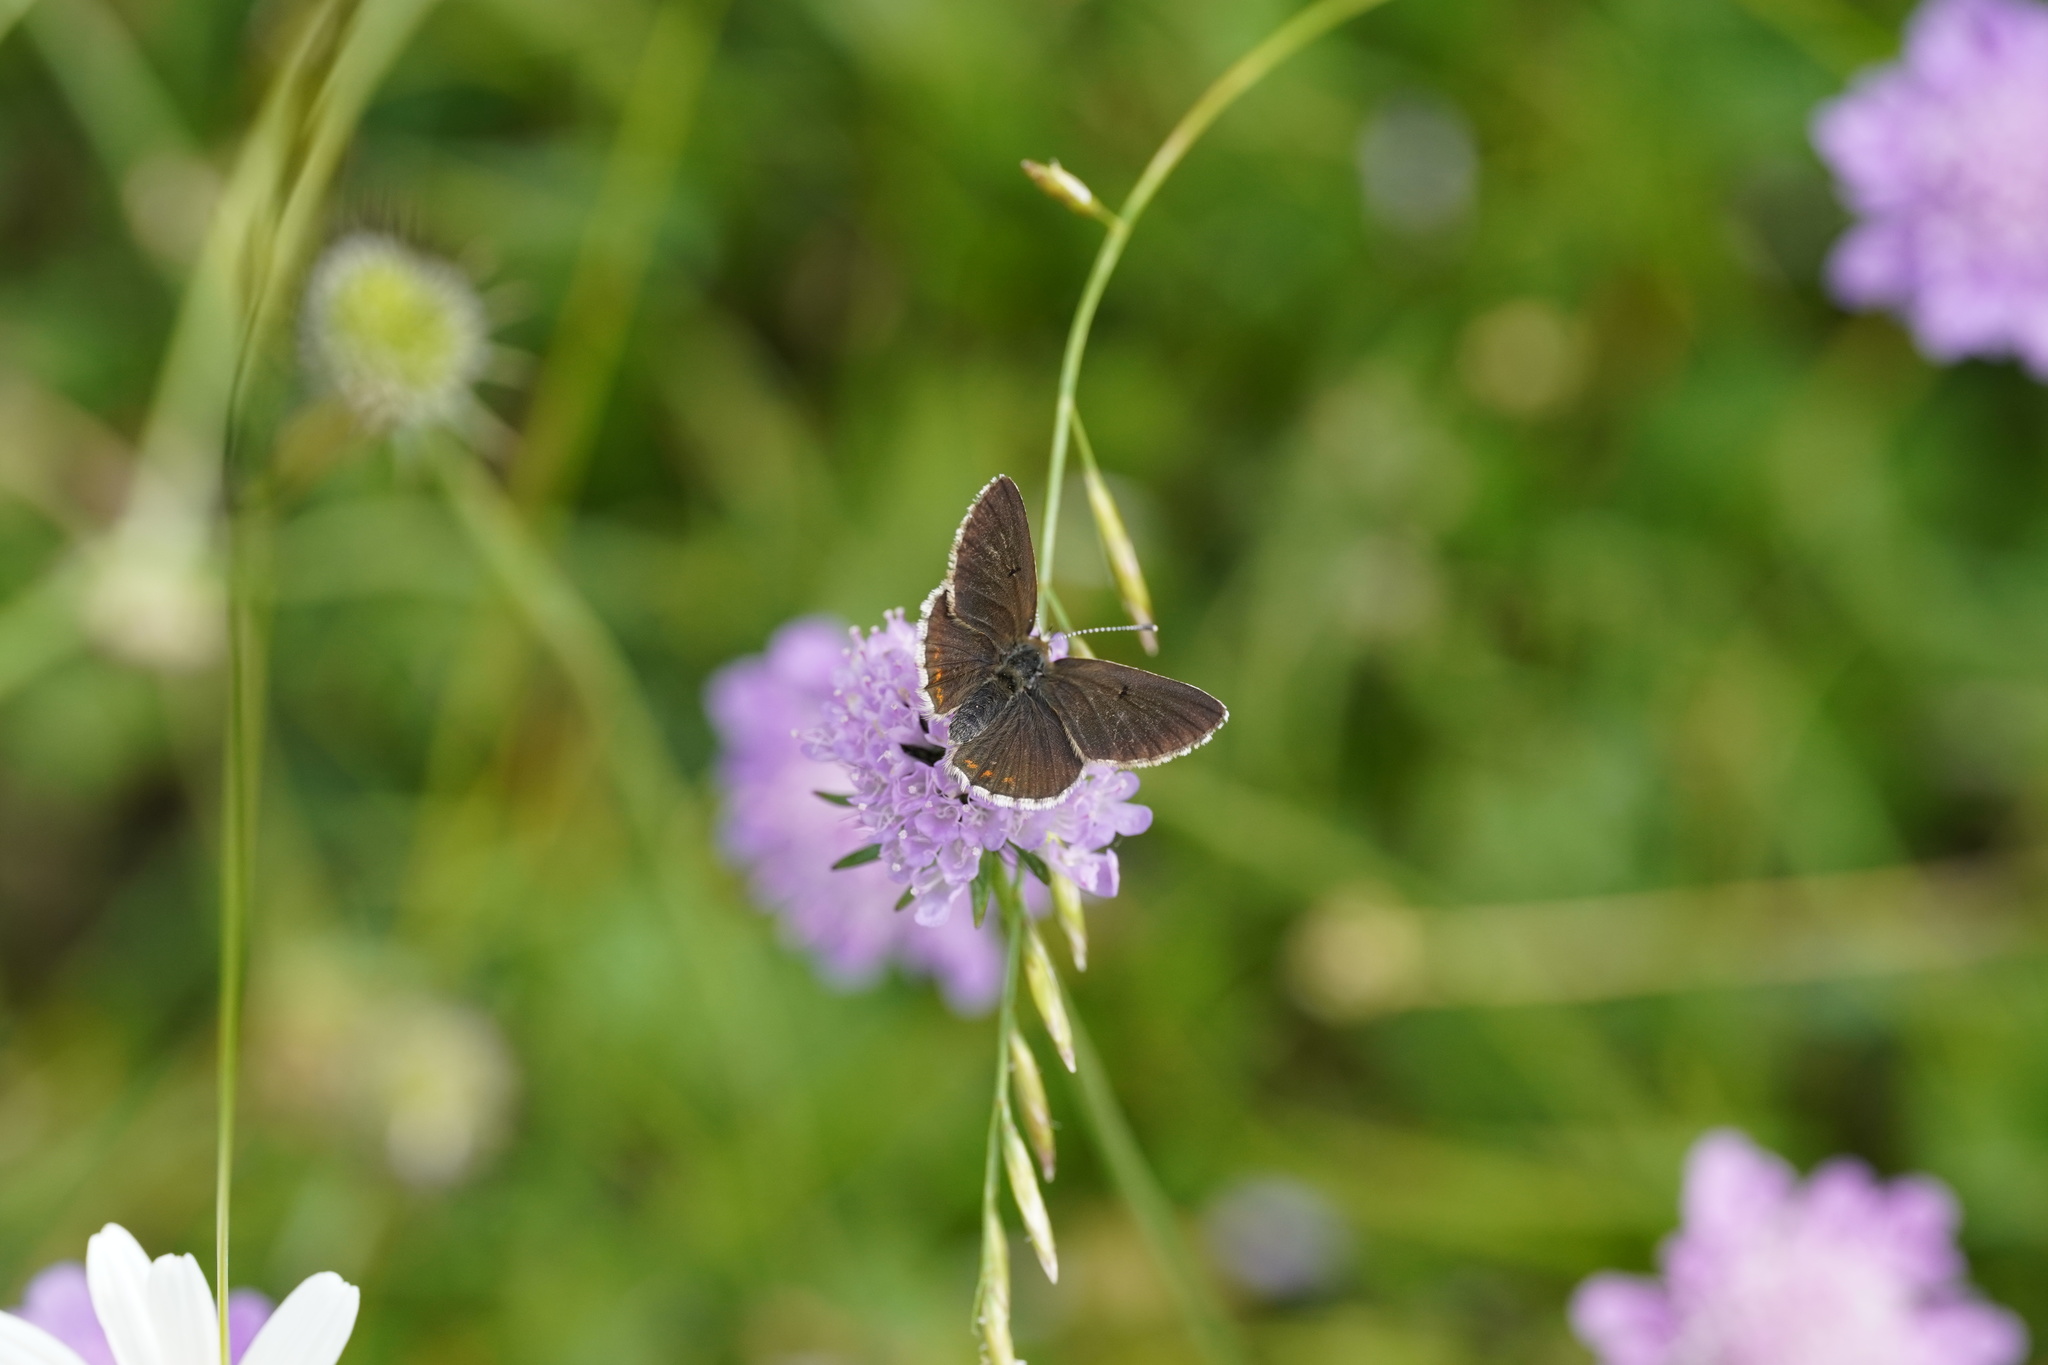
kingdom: Animalia
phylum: Arthropoda
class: Insecta
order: Lepidoptera
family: Lycaenidae
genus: Aricia
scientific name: Aricia artaxerxes
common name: Northern brown argus
